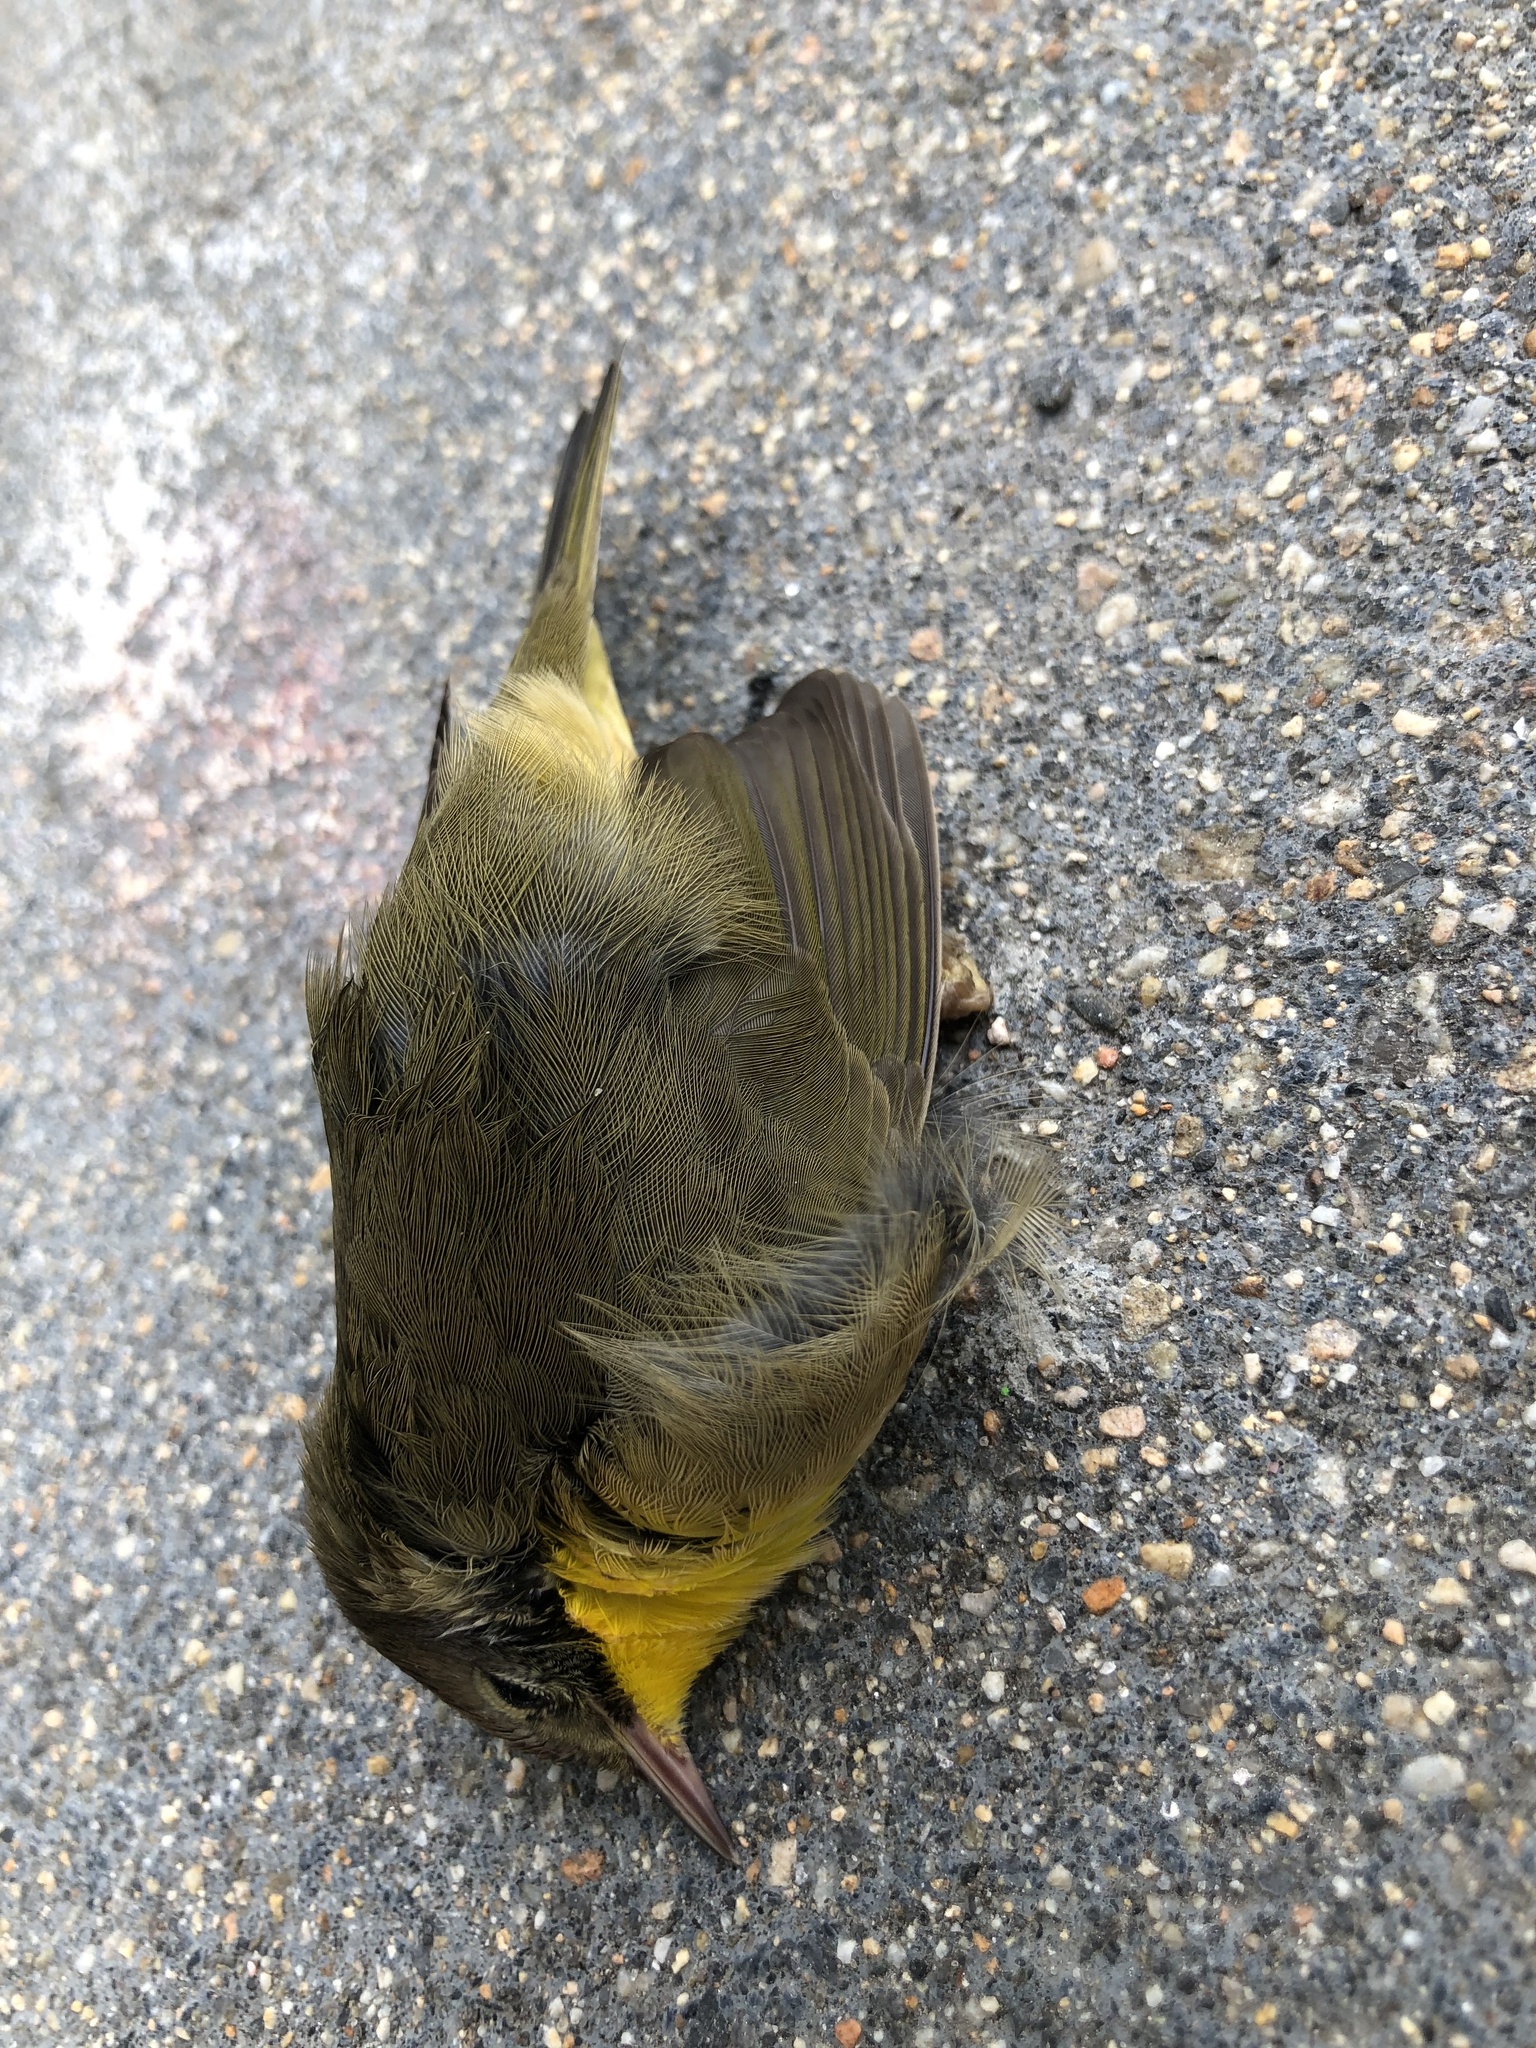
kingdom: Animalia
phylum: Chordata
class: Aves
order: Passeriformes
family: Parulidae
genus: Geothlypis
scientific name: Geothlypis trichas
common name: Common yellowthroat
